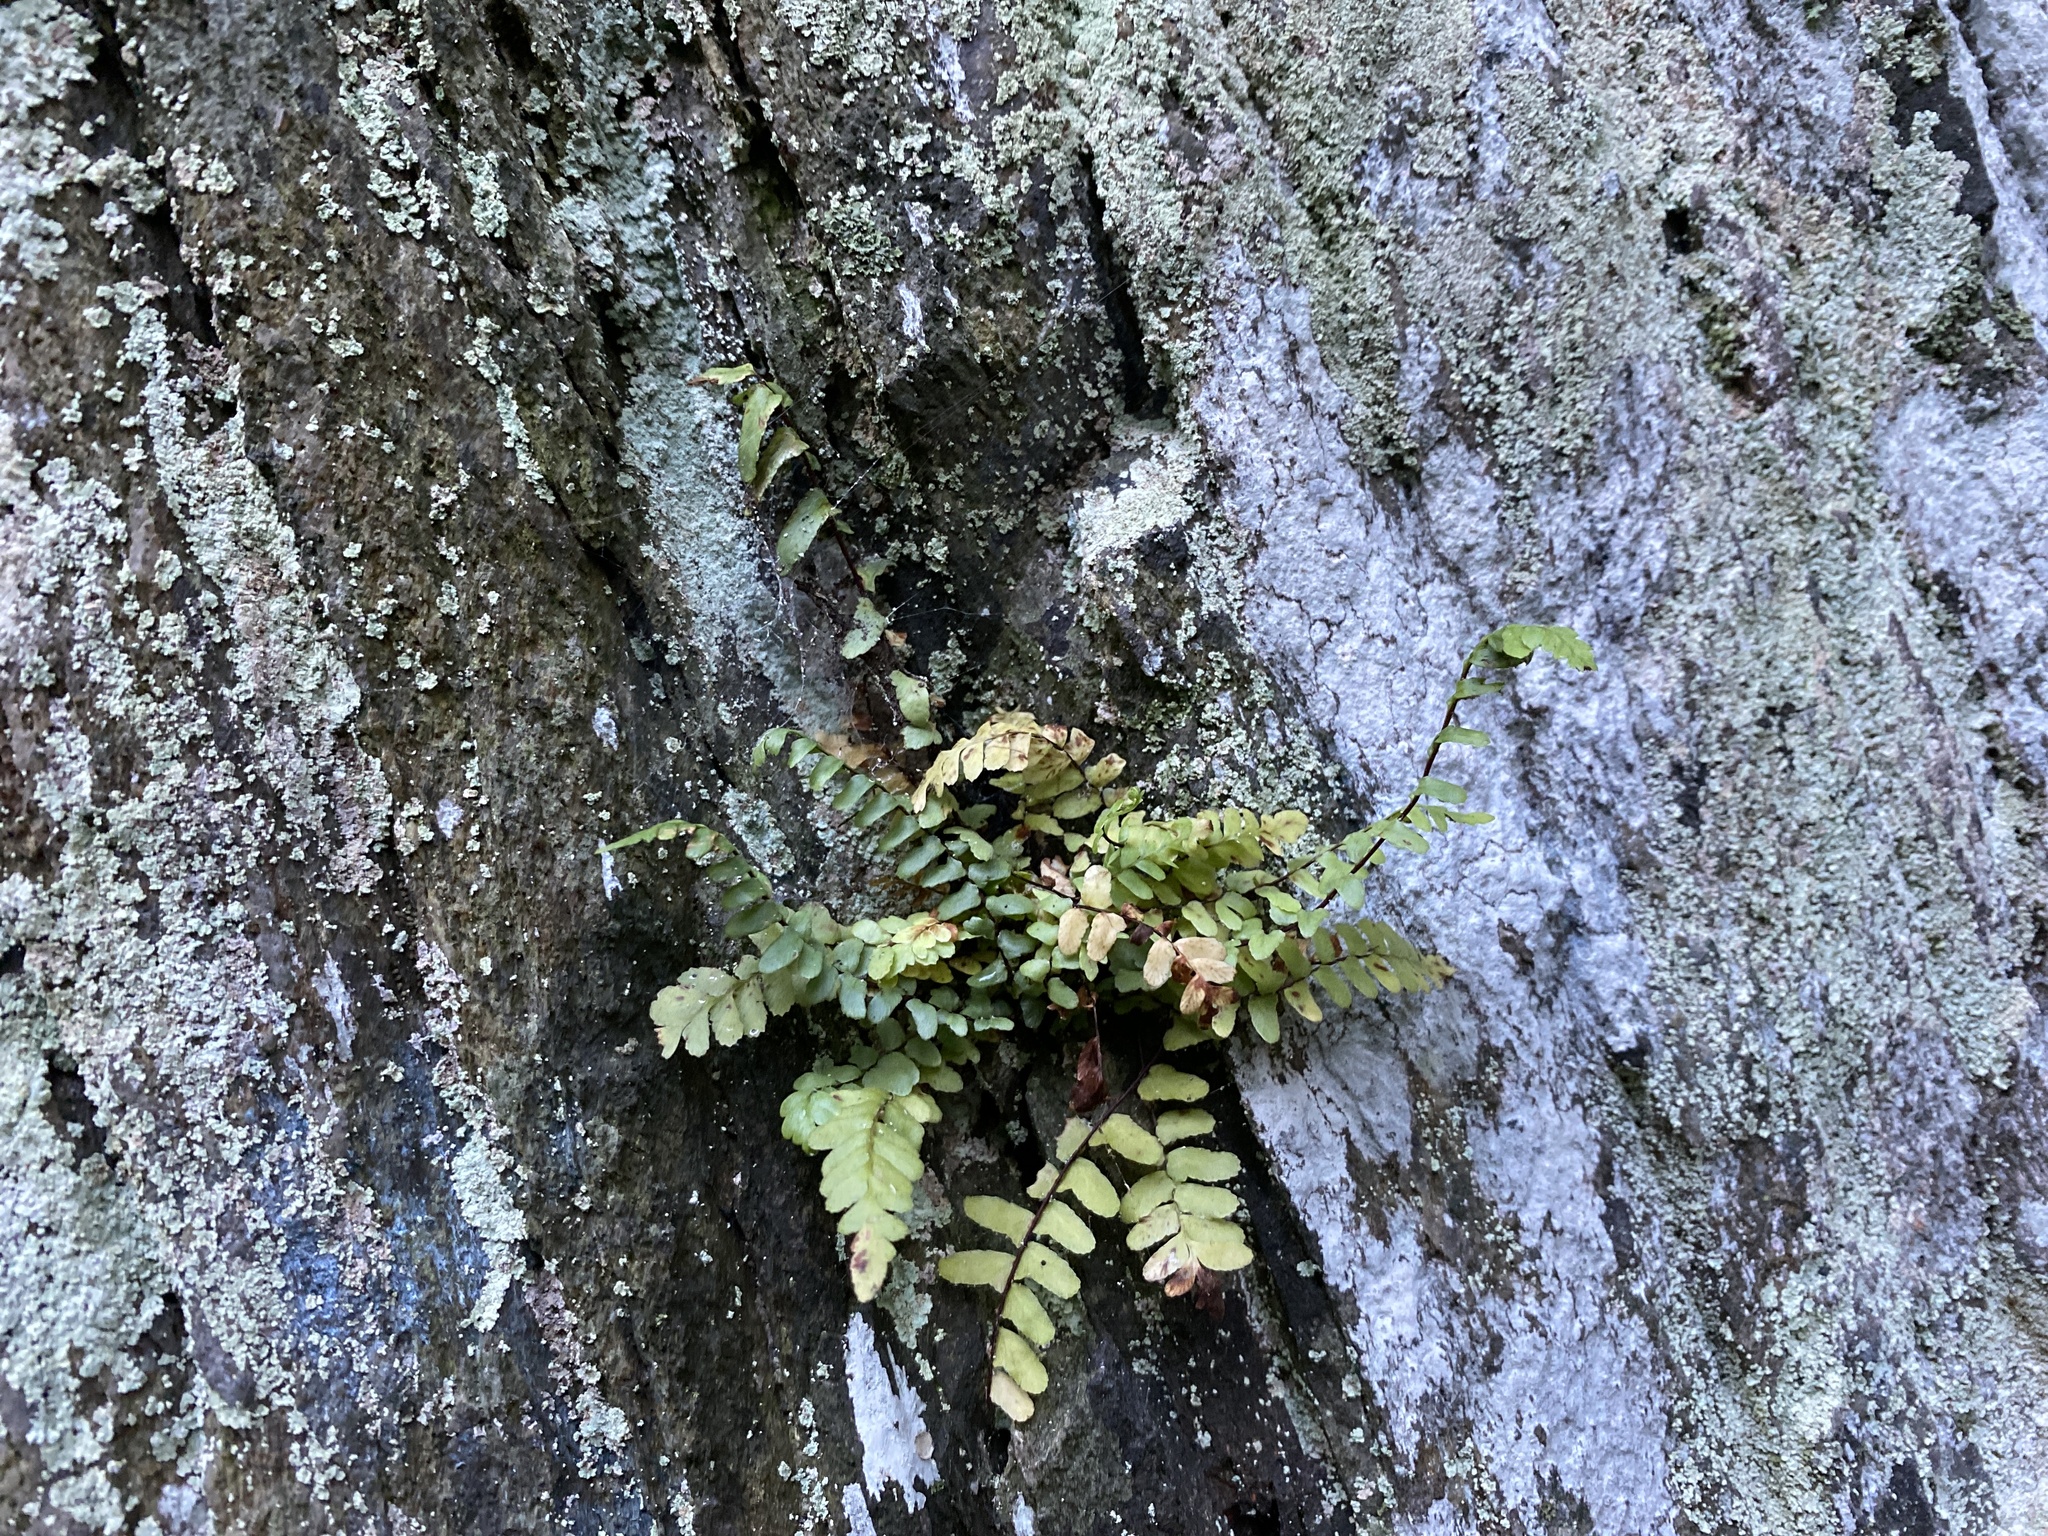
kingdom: Plantae
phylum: Tracheophyta
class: Polypodiopsida
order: Polypodiales
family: Aspleniaceae
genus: Asplenium
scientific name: Asplenium platyneuron
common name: Ebony spleenwort
